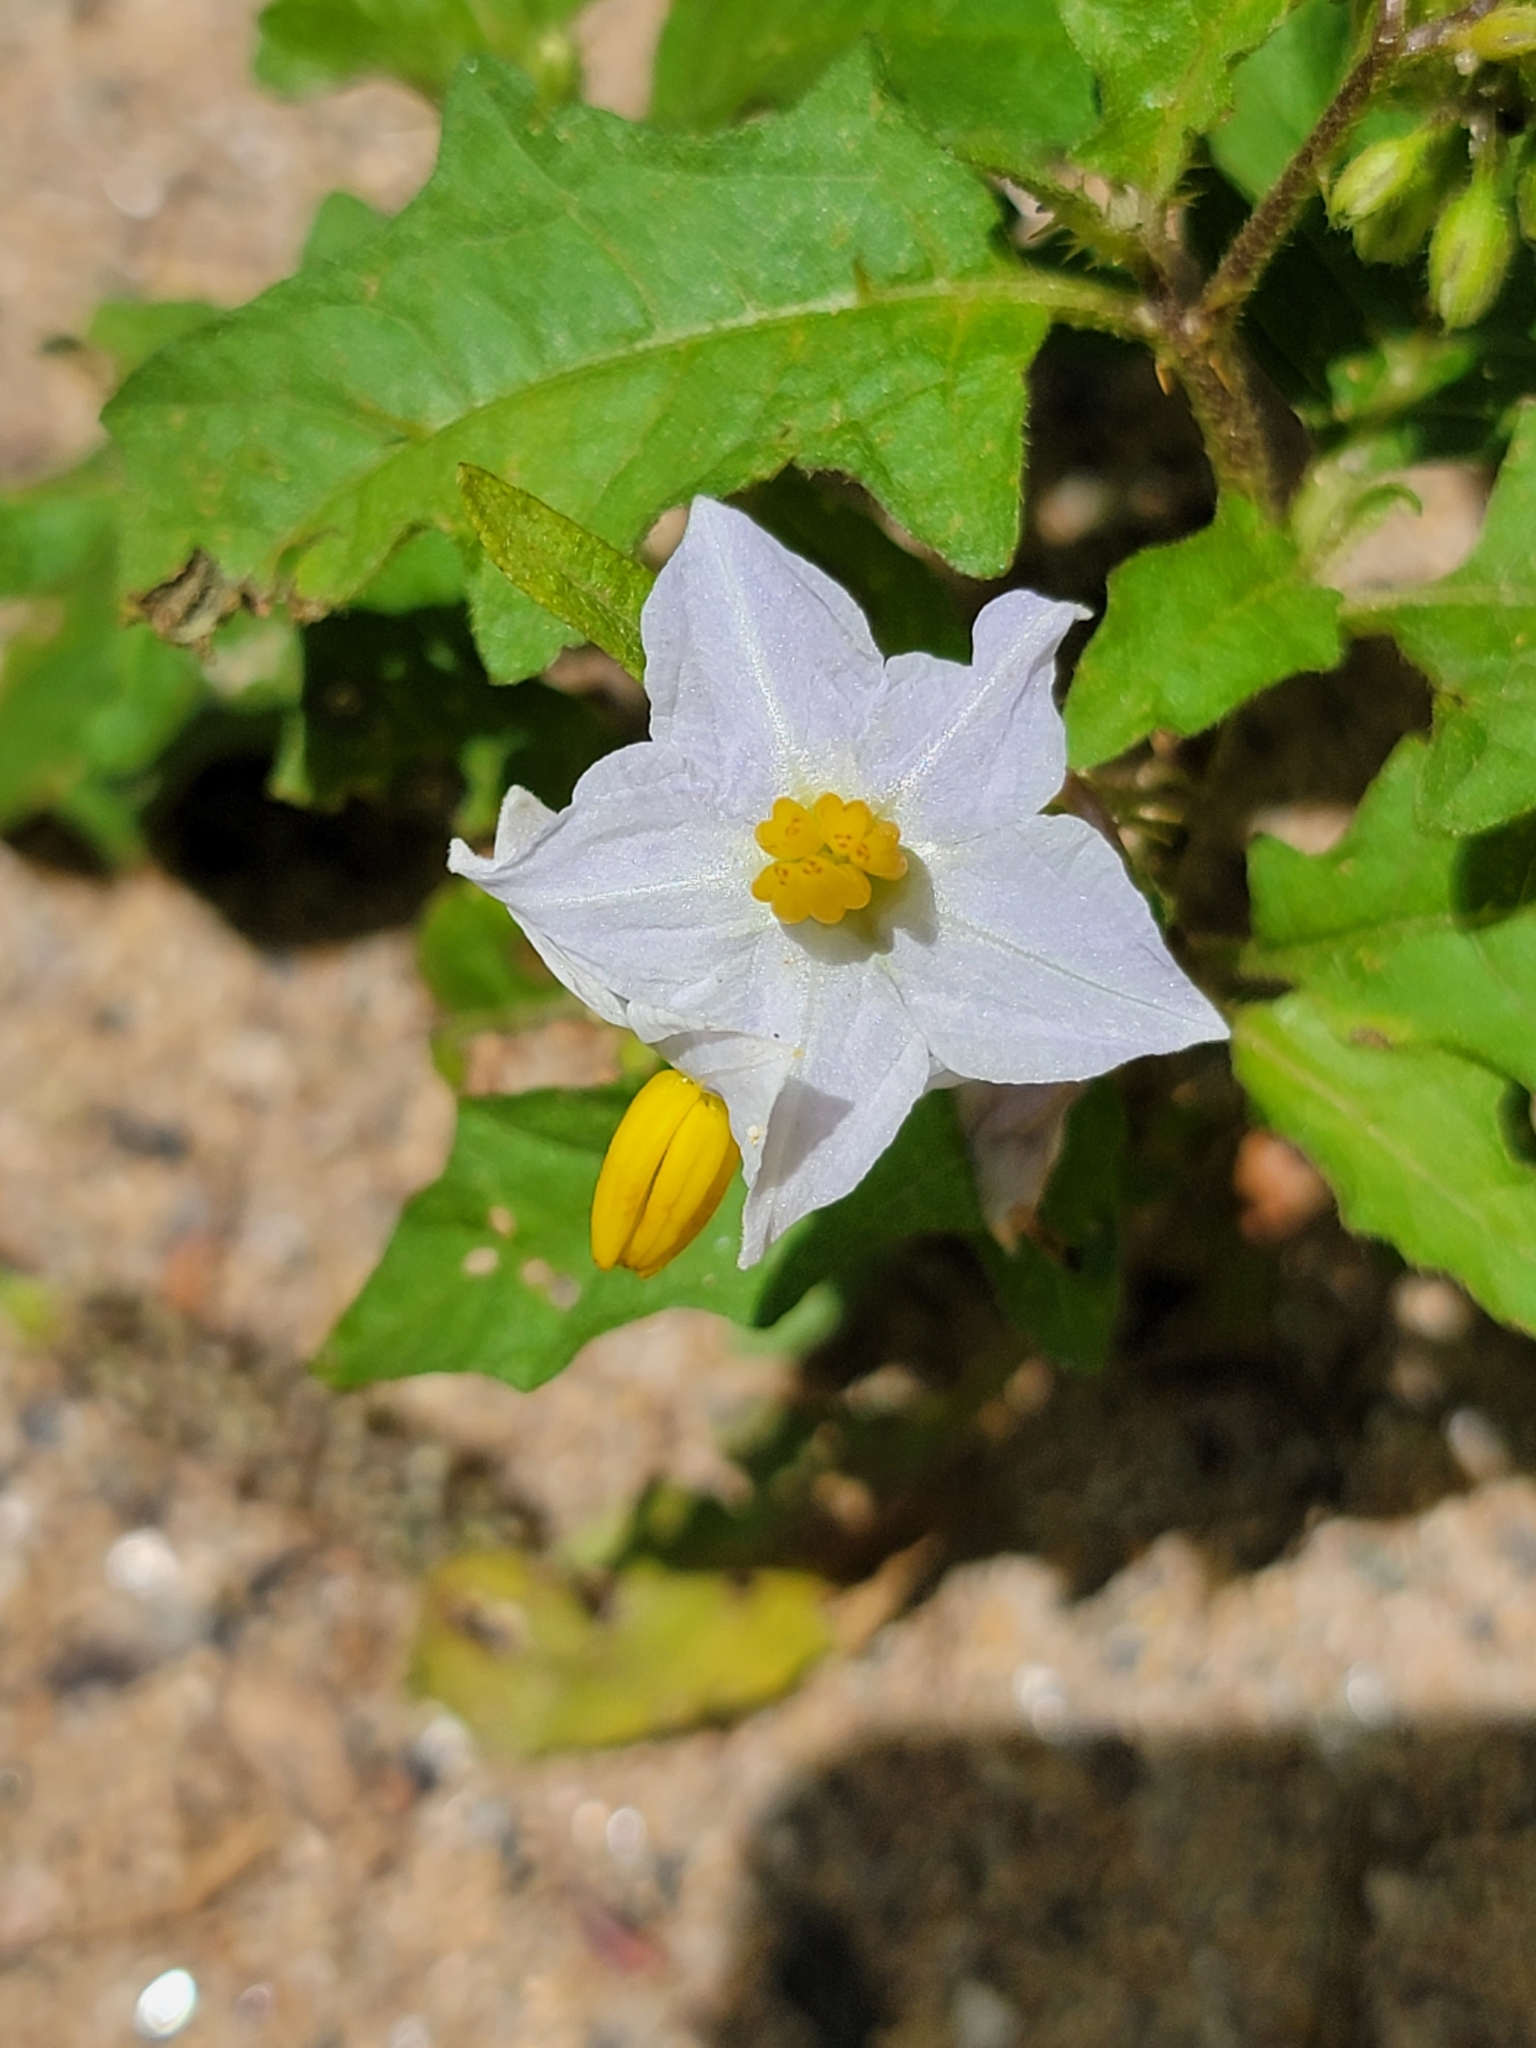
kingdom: Plantae
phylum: Tracheophyta
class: Magnoliopsida
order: Solanales
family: Solanaceae
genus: Solanum
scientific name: Solanum carolinense
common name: Horse-nettle
